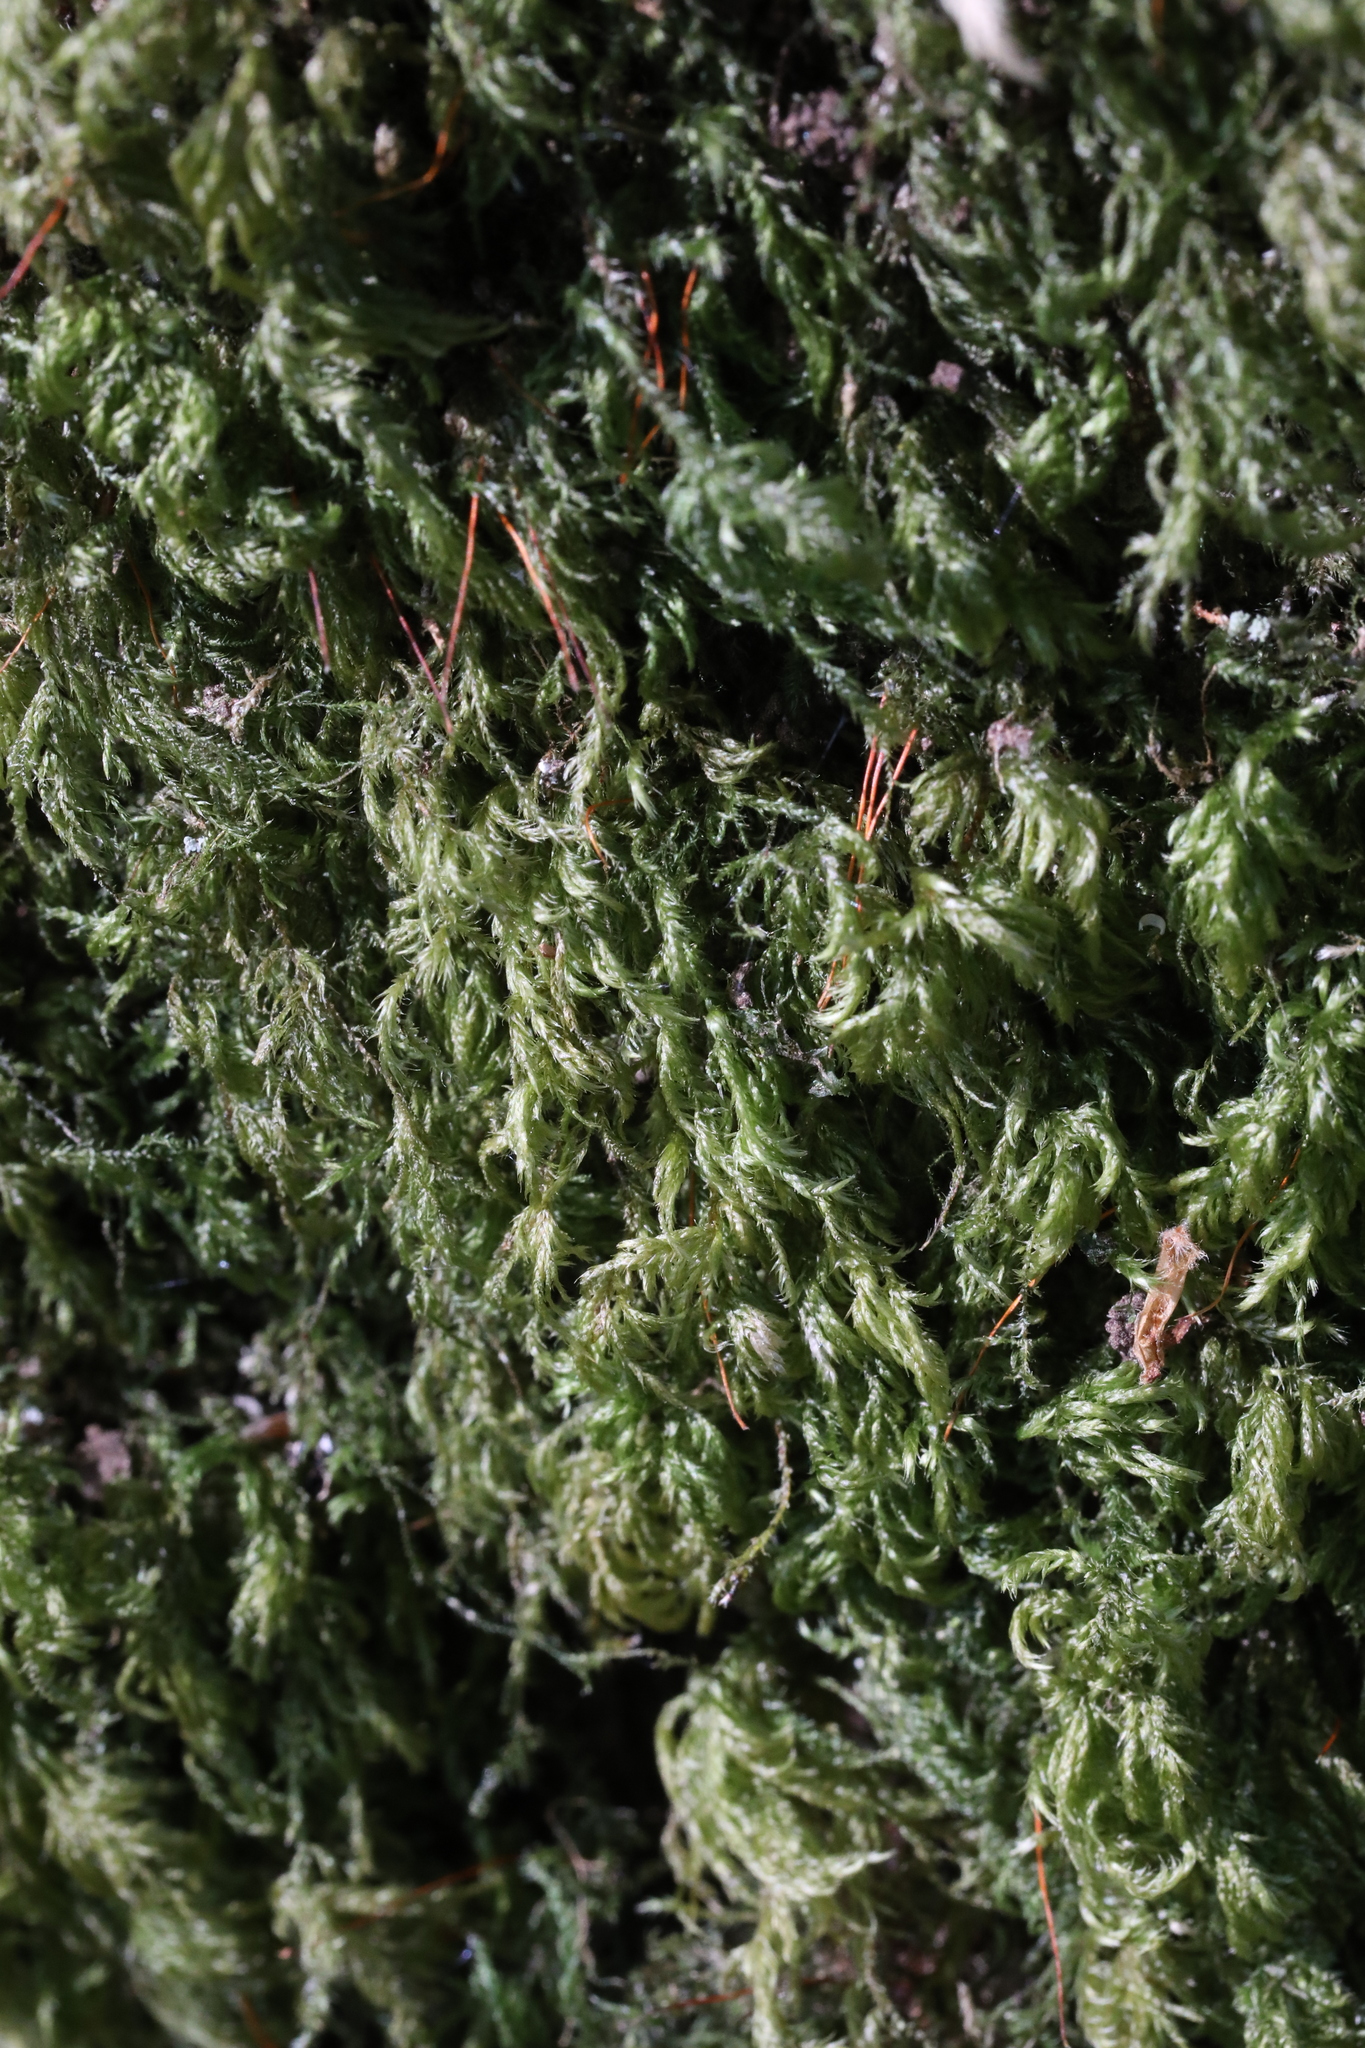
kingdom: Plantae
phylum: Bryophyta
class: Bryopsida
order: Hypnales
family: Lembophyllaceae
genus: Pseudisothecium
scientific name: Pseudisothecium myosuroides
